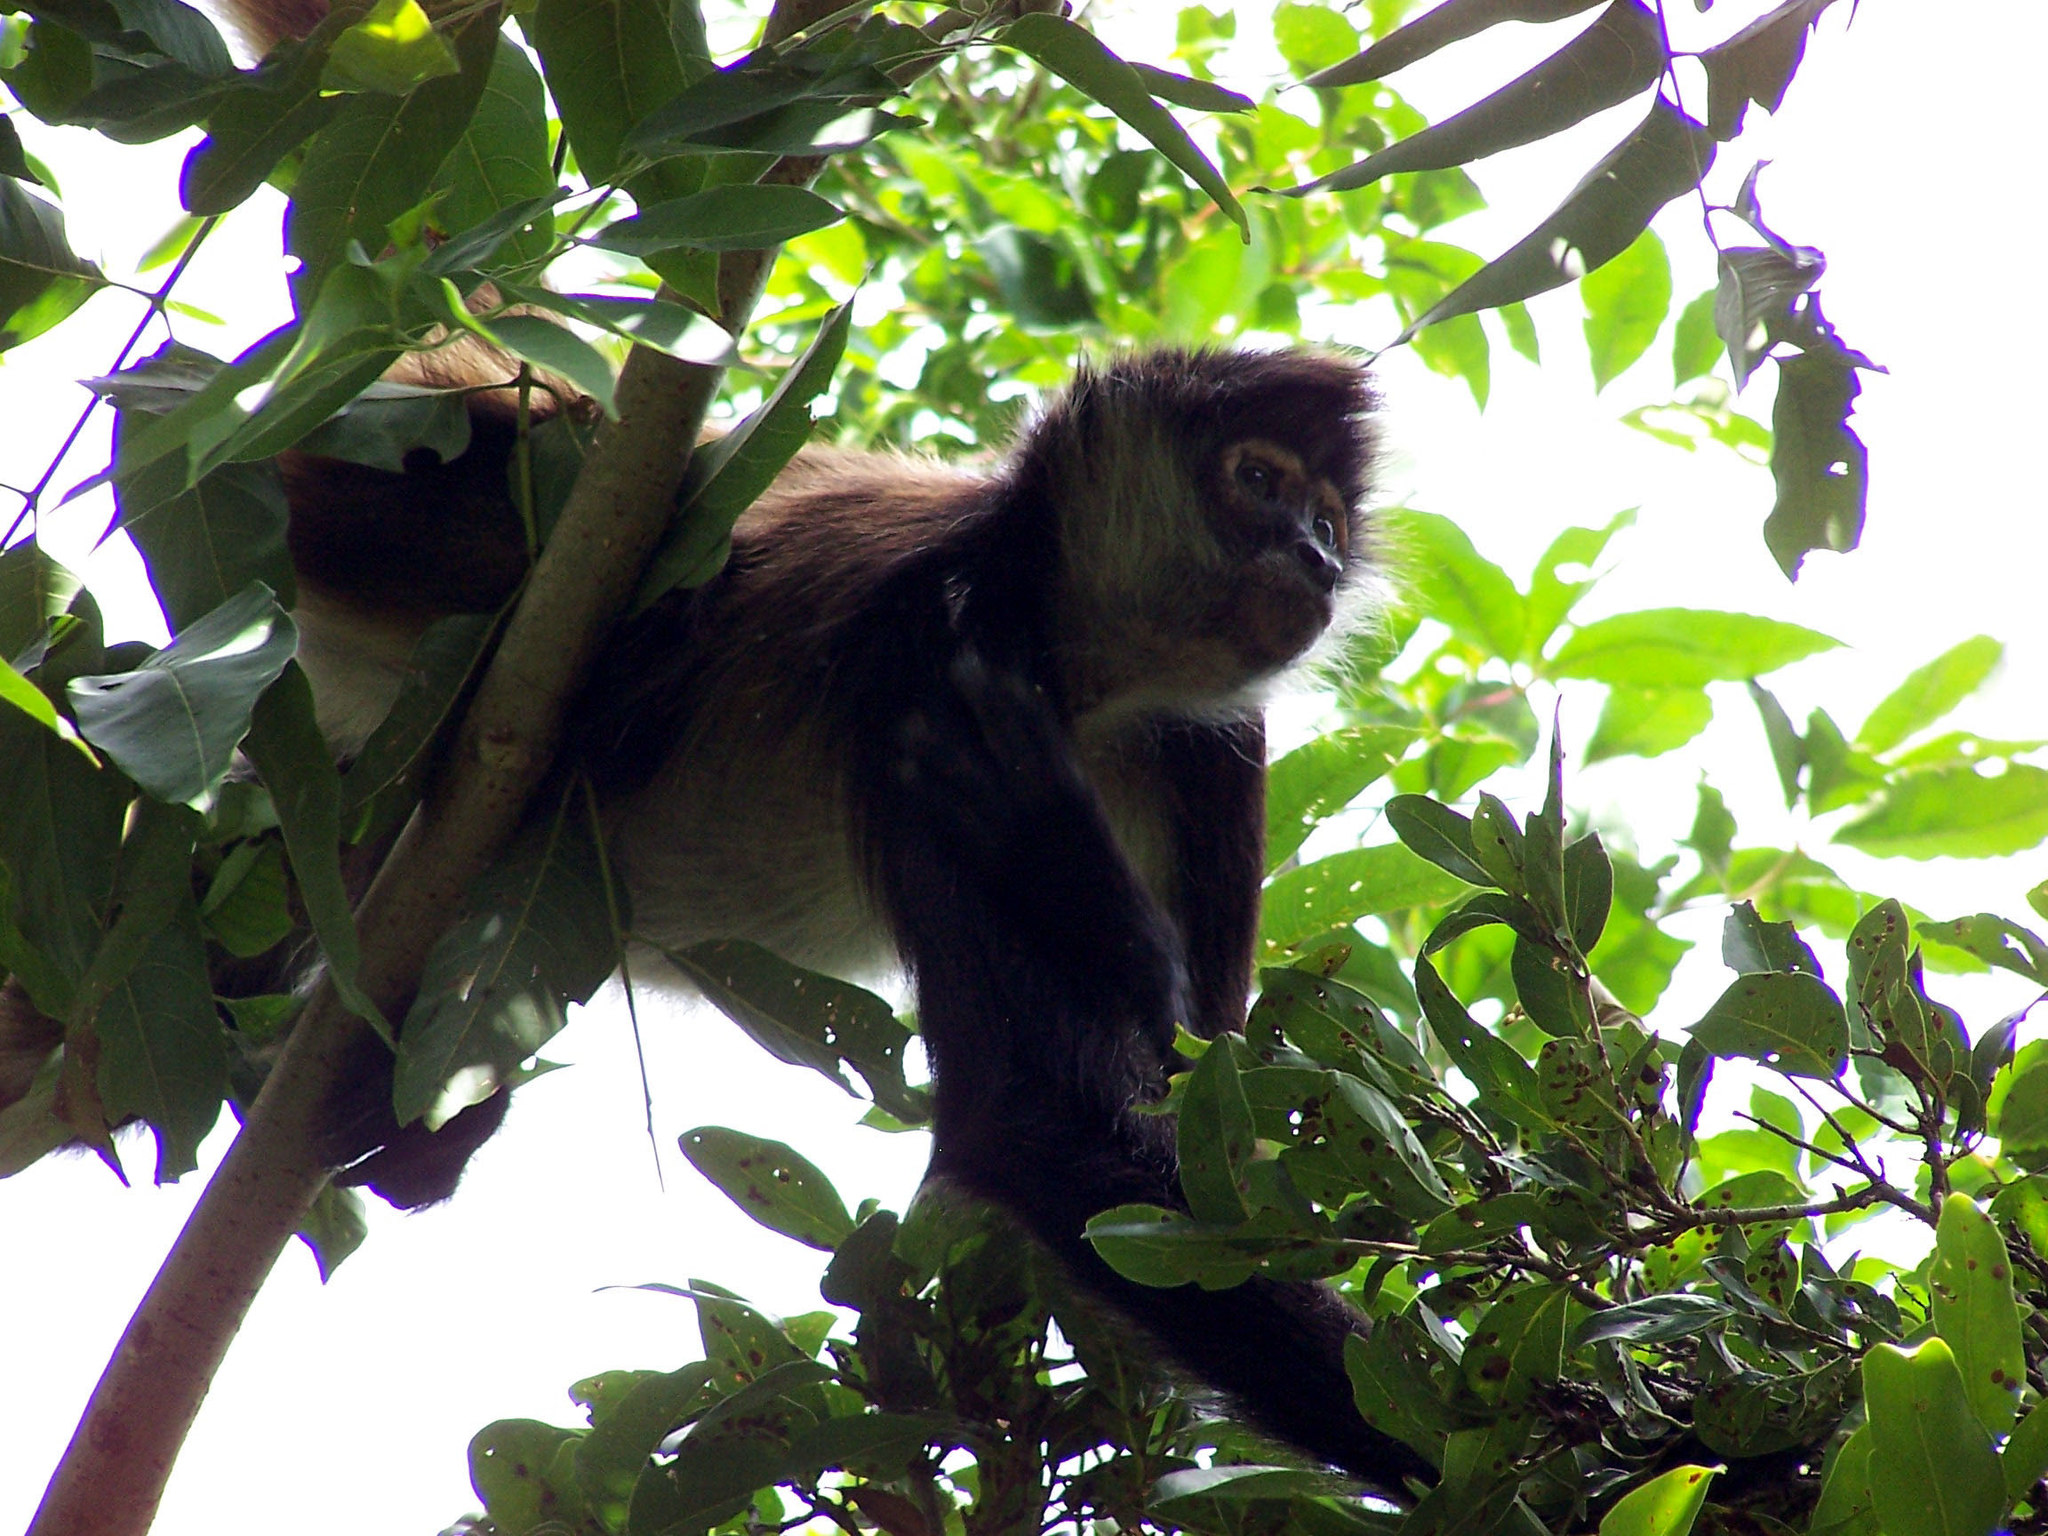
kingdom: Animalia
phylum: Chordata
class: Mammalia
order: Primates
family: Atelidae
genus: Ateles
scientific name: Ateles geoffroyi
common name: Black-handed spider monkey
